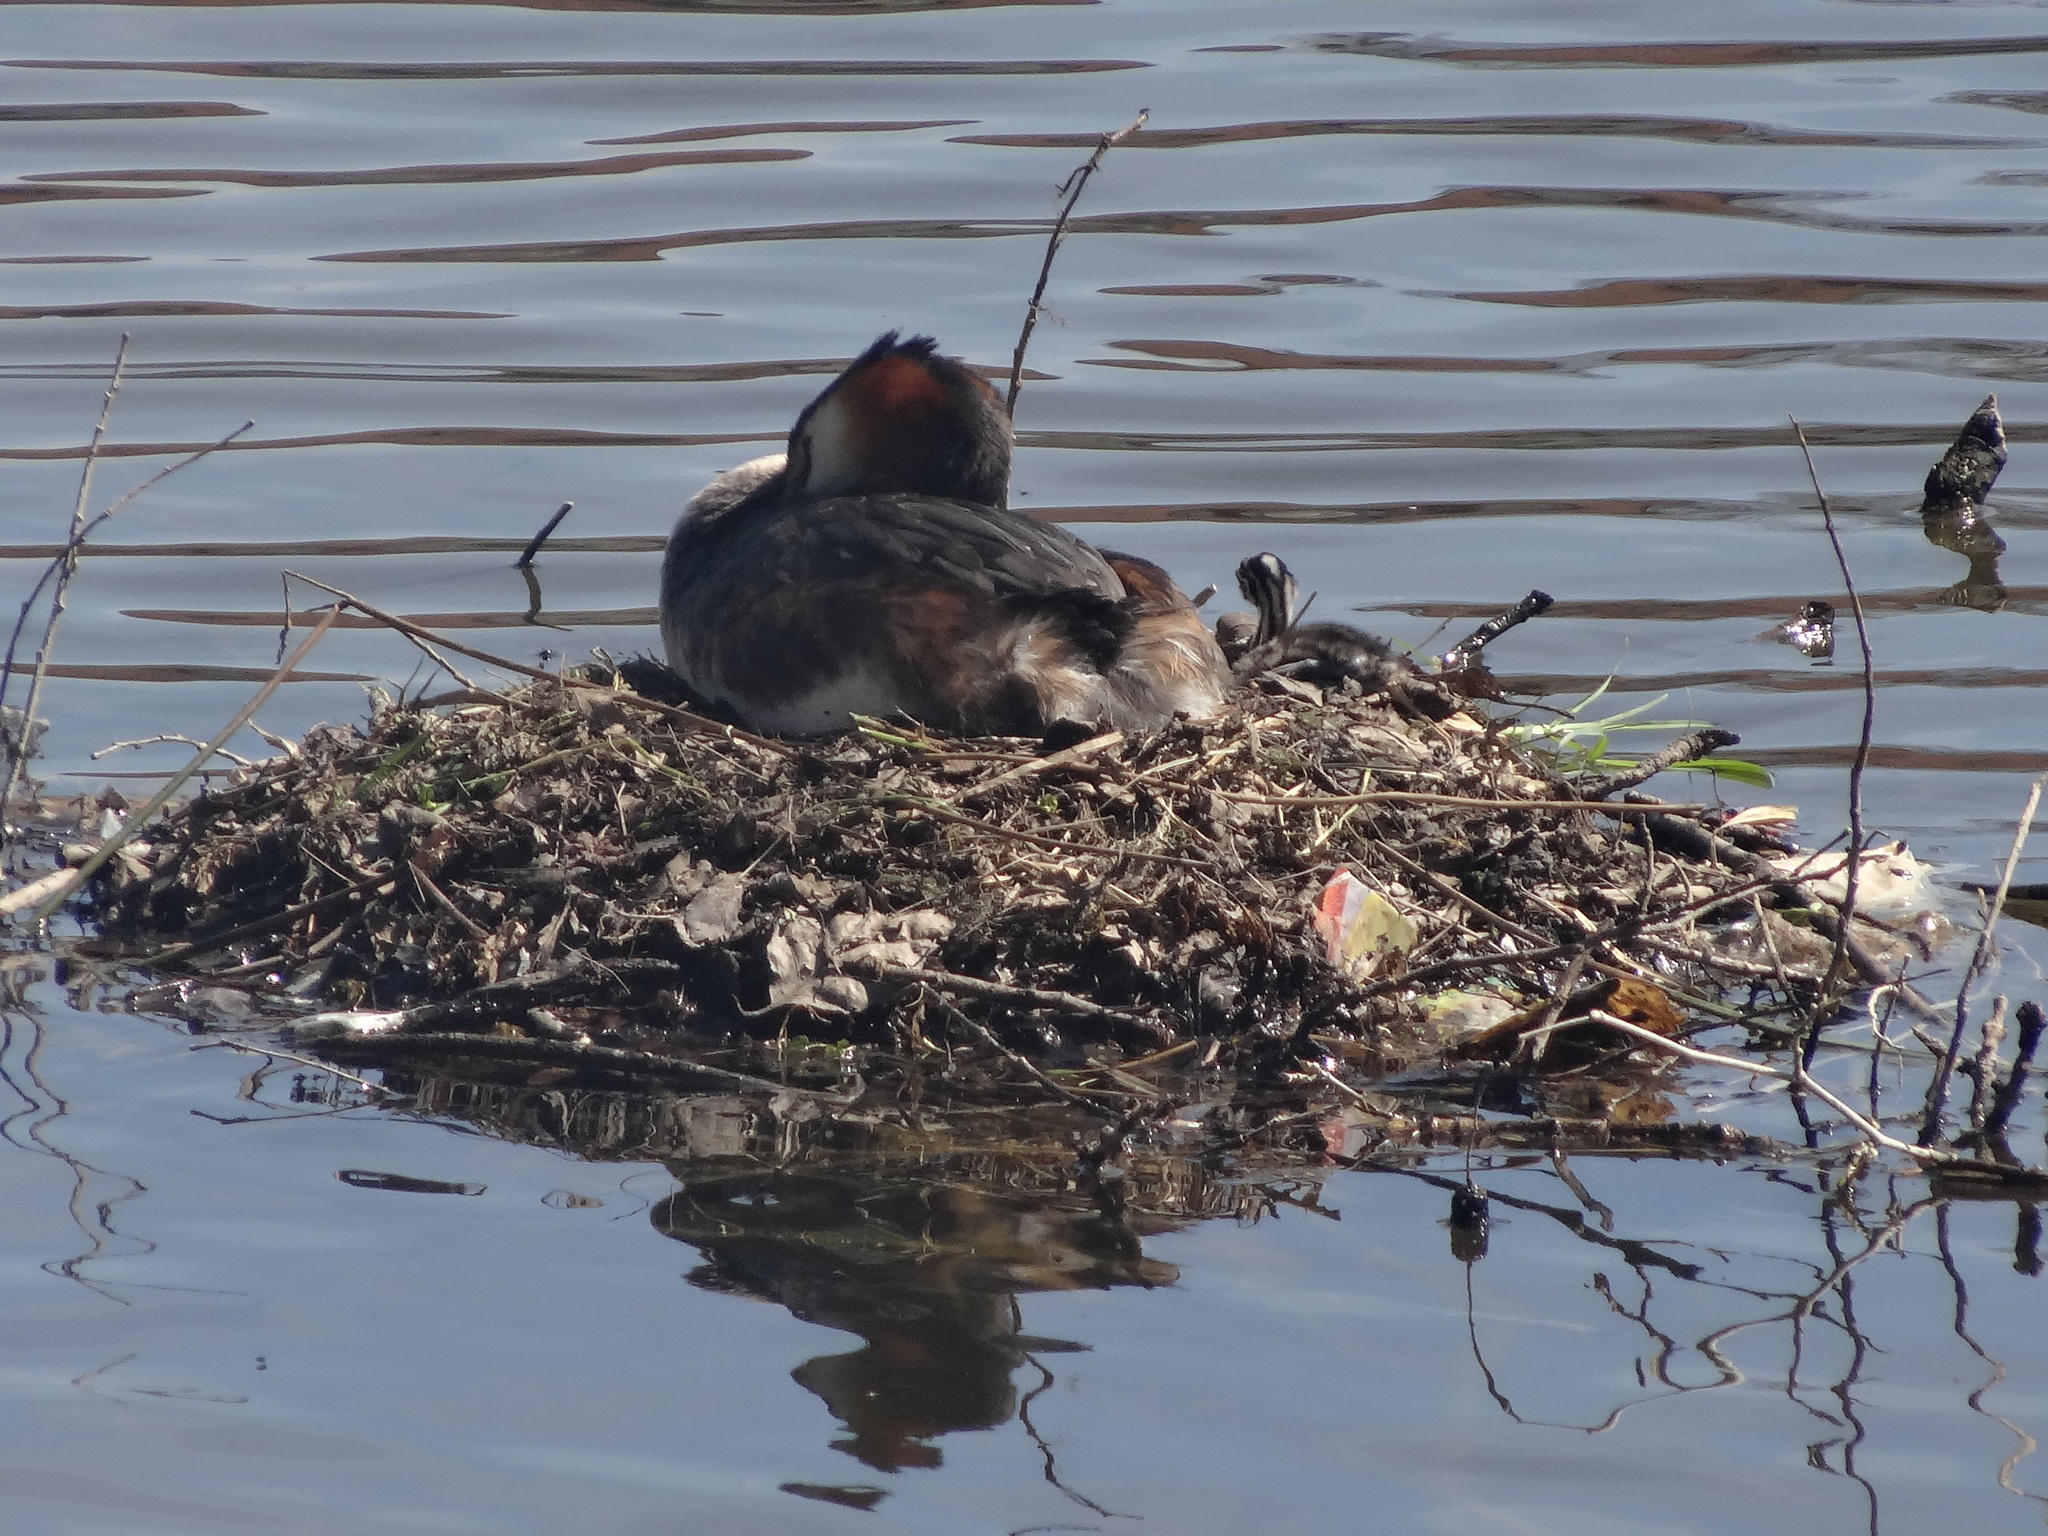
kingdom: Animalia
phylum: Chordata
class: Aves
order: Podicipediformes
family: Podicipedidae
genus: Podiceps
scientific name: Podiceps cristatus
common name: Great crested grebe
